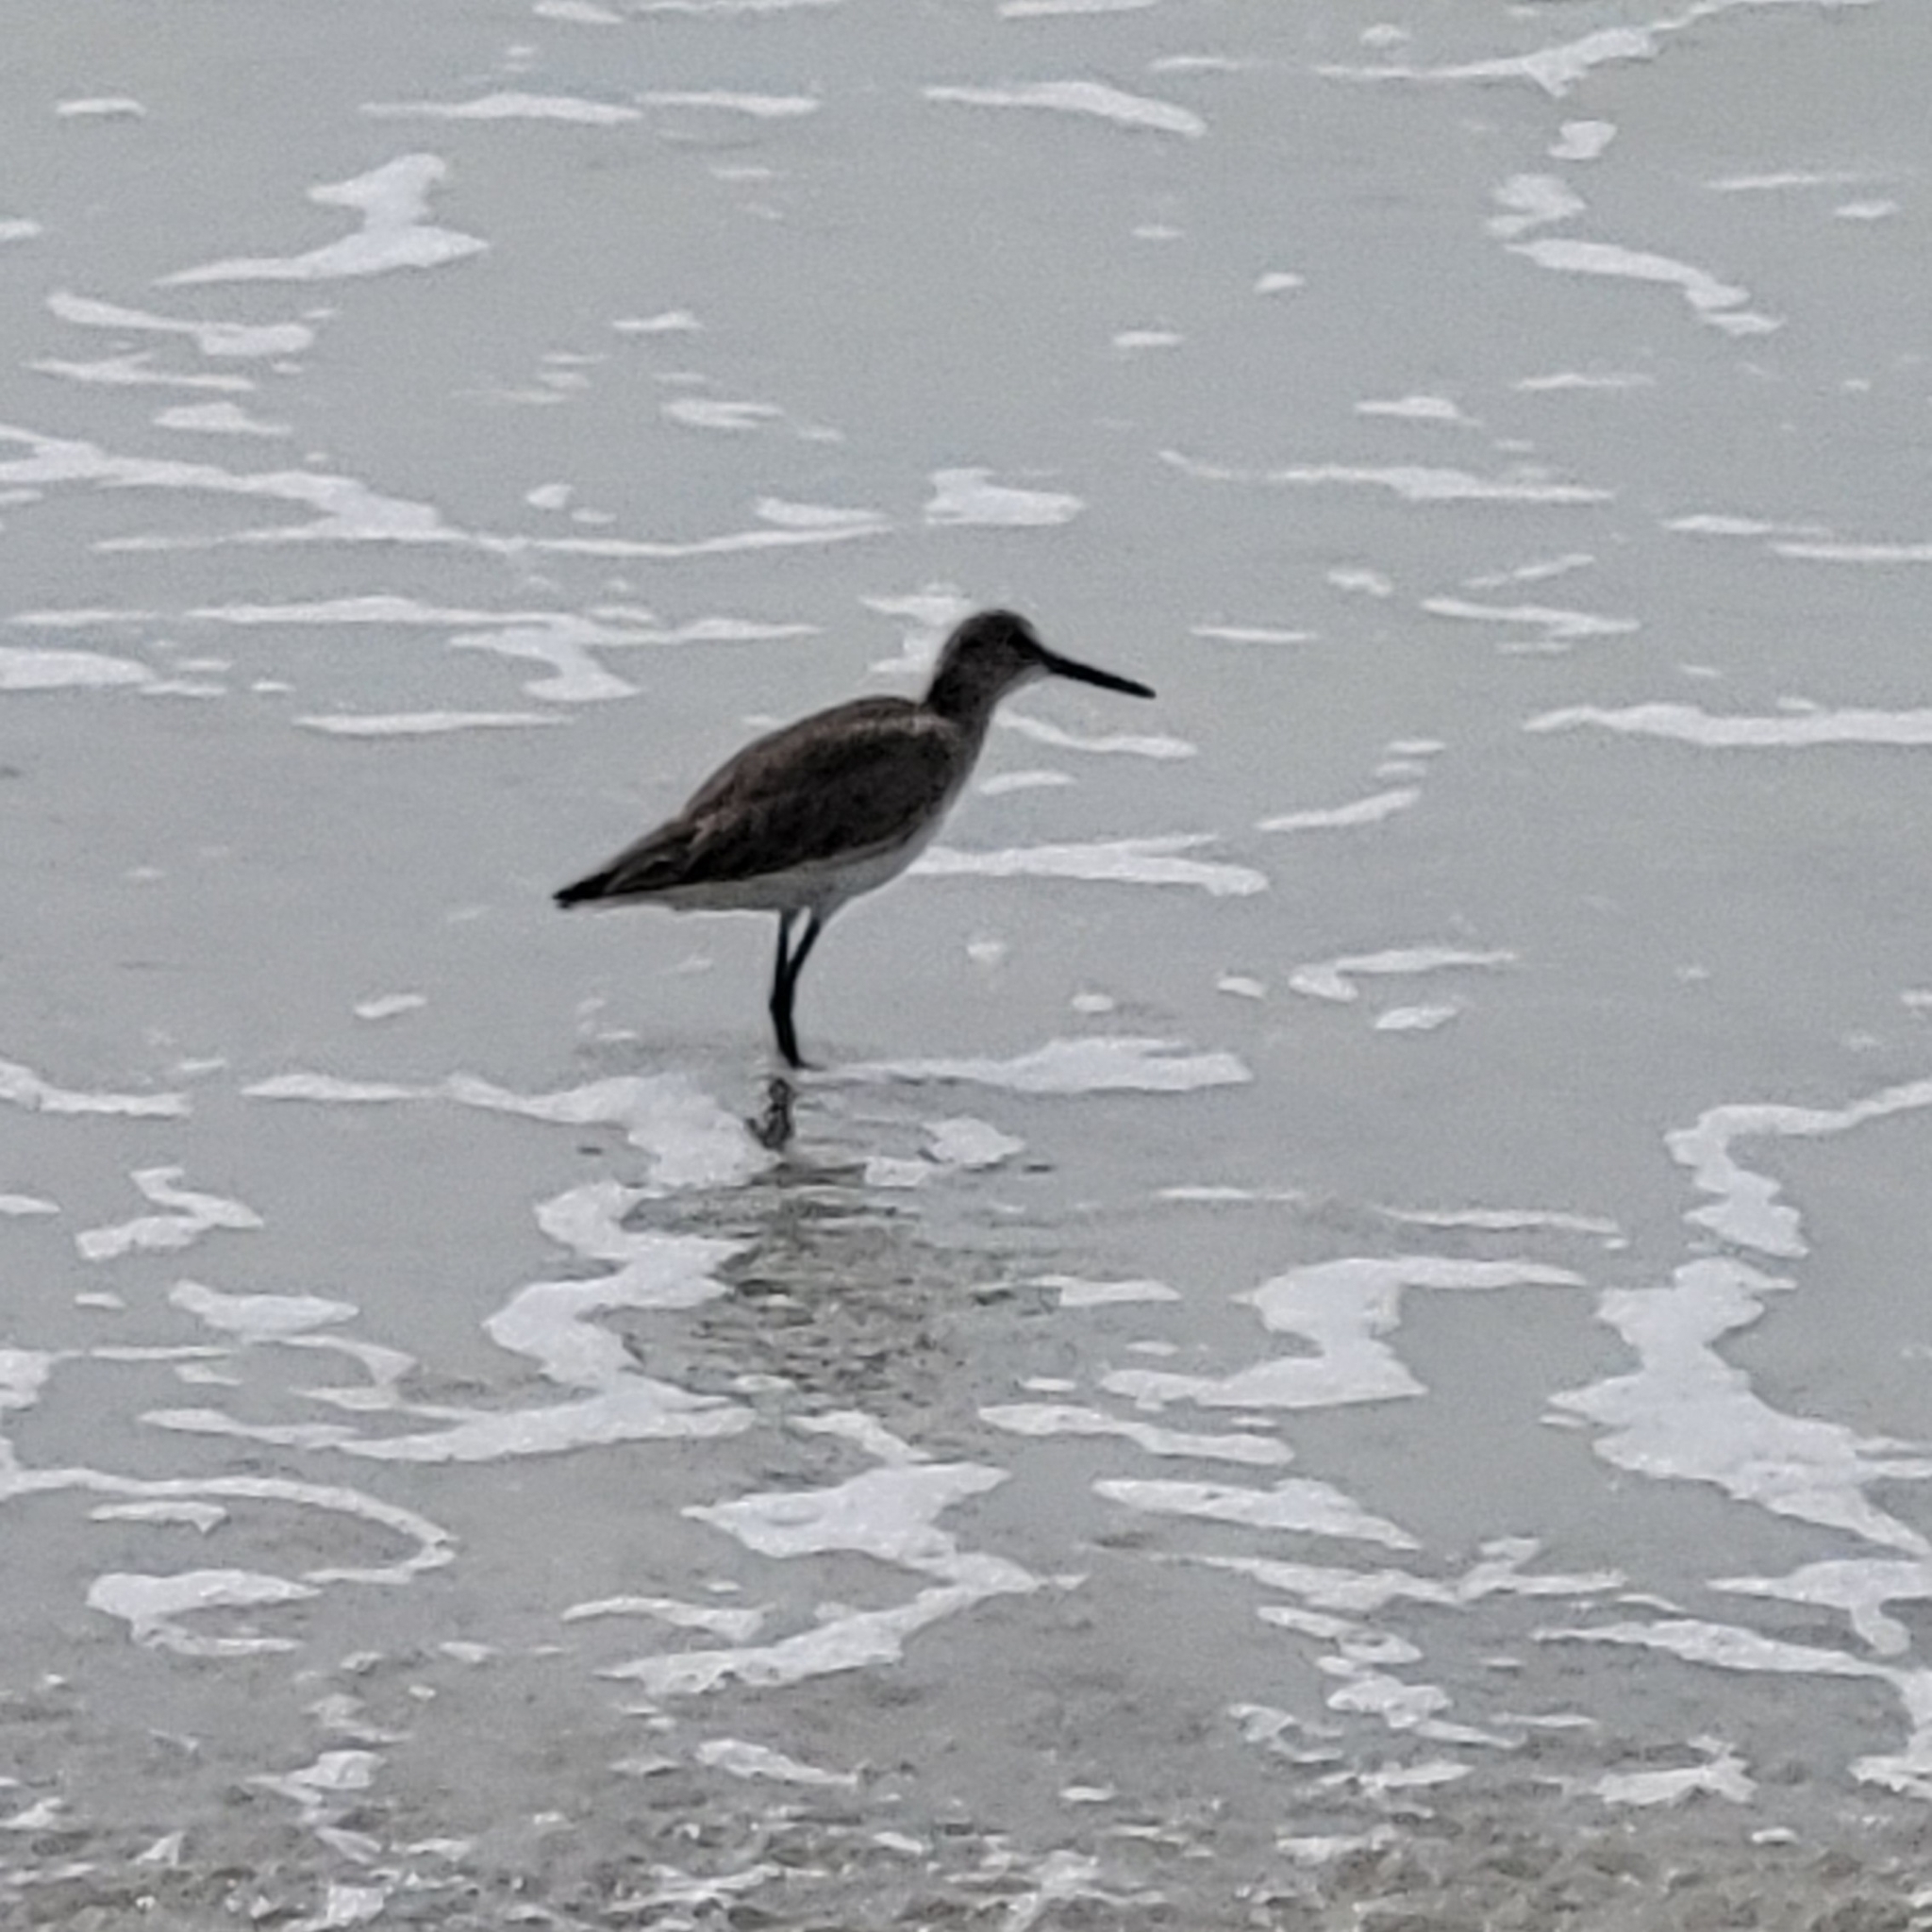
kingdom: Animalia
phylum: Chordata
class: Aves
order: Charadriiformes
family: Scolopacidae
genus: Tringa
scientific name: Tringa semipalmata
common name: Willet
